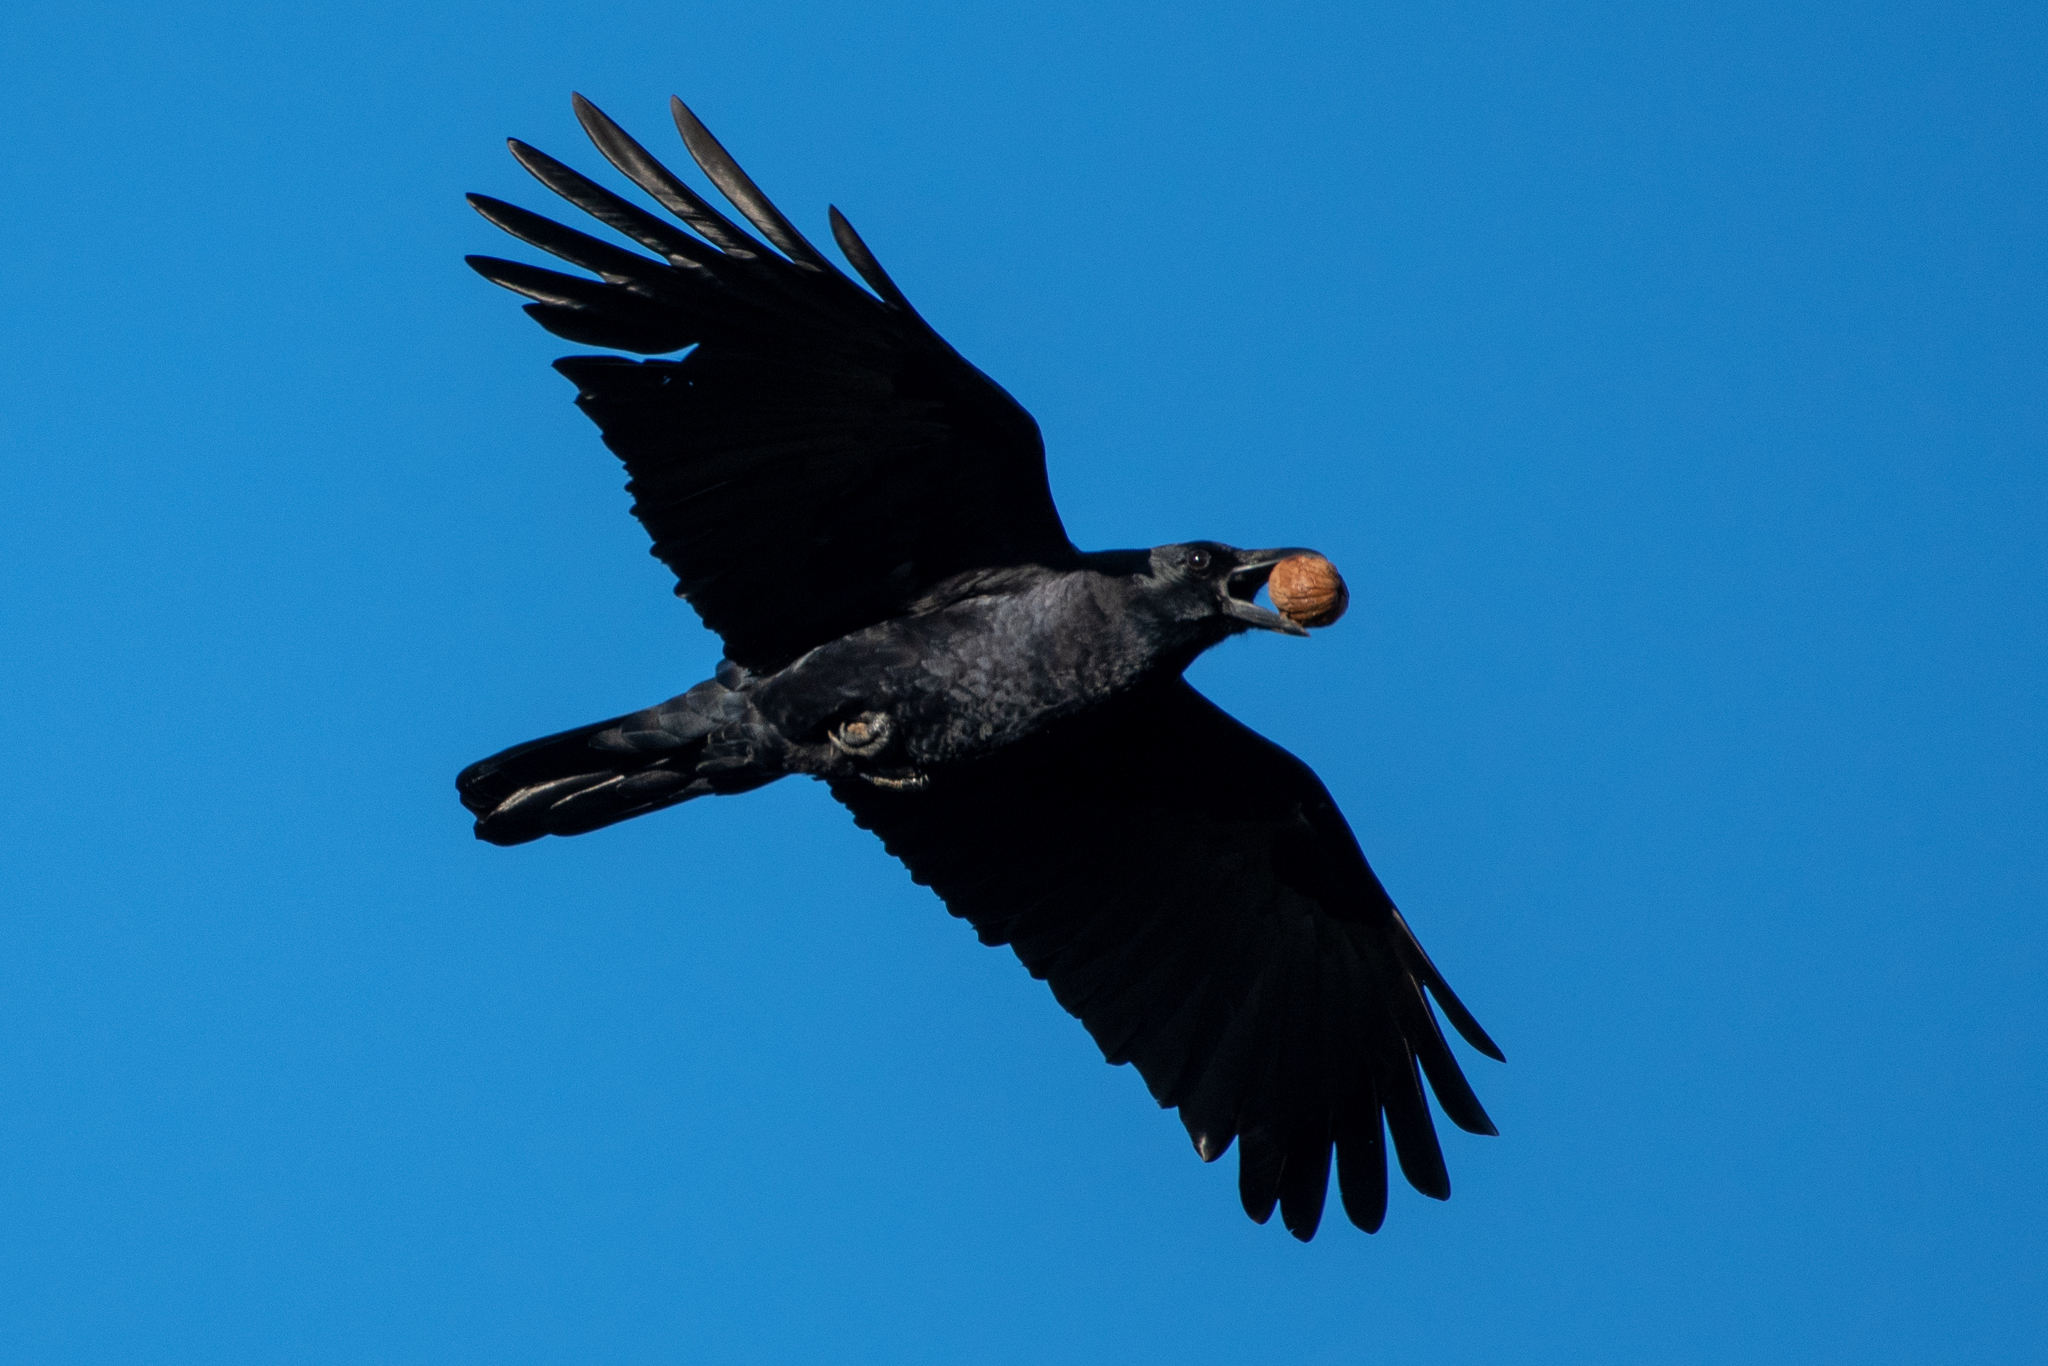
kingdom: Animalia
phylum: Chordata
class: Aves
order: Passeriformes
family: Corvidae
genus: Corvus
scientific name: Corvus corax
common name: Common raven
